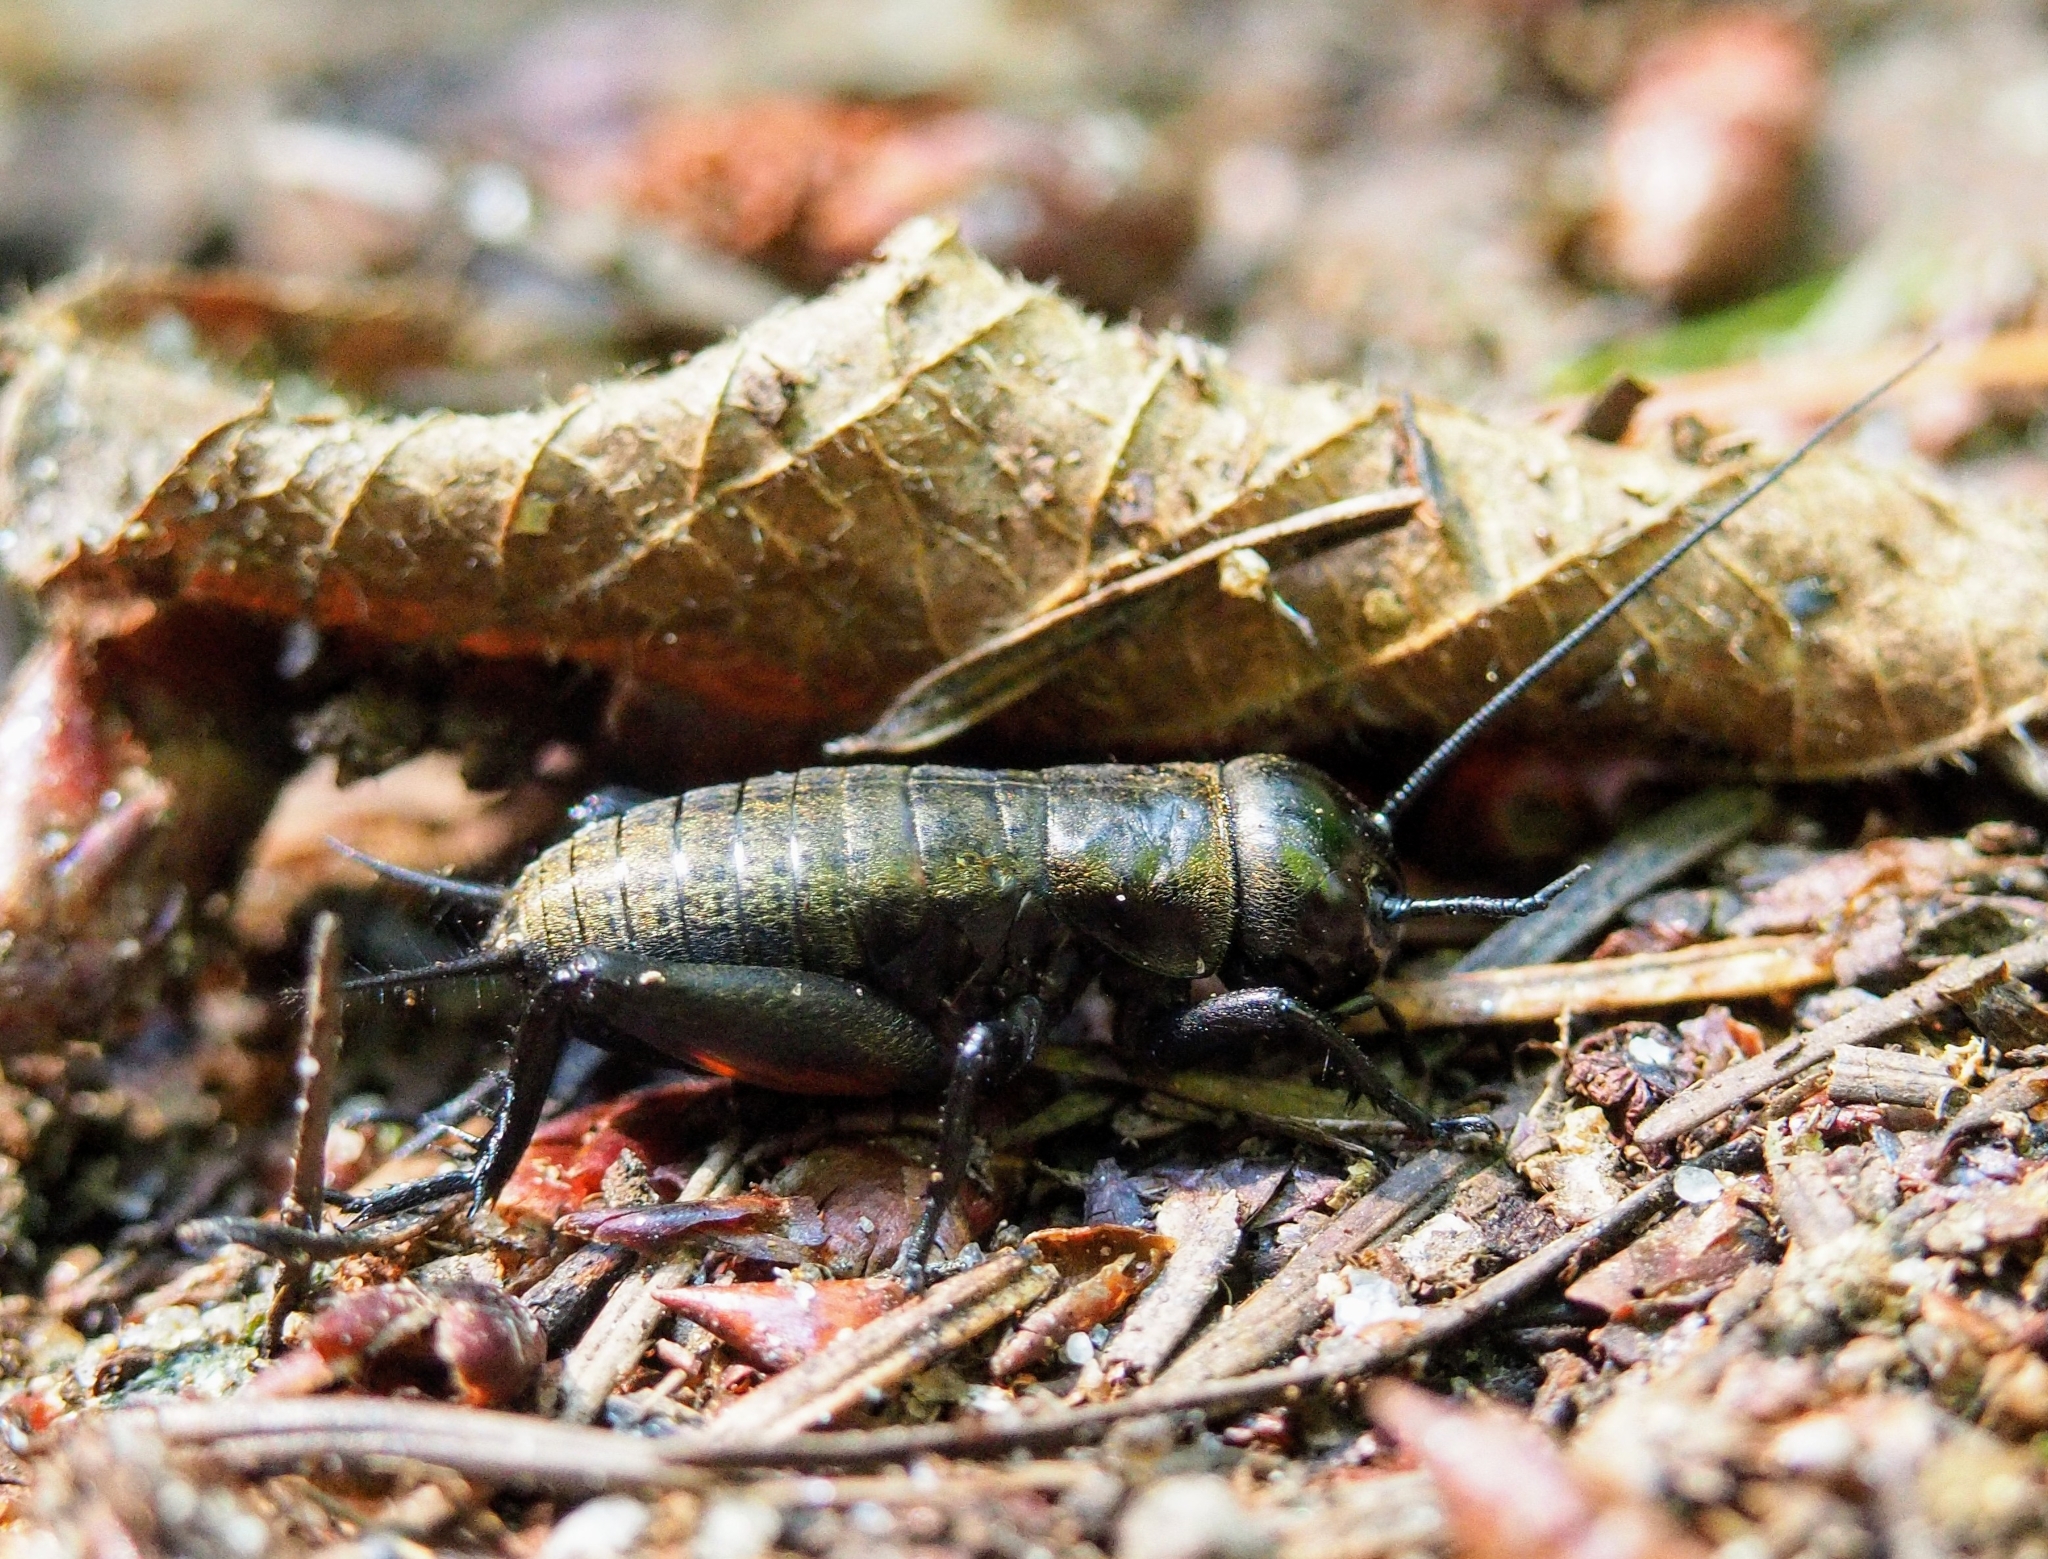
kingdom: Animalia
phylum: Arthropoda
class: Insecta
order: Orthoptera
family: Gryllidae
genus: Gryllus
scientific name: Gryllus campestris
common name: Field cricket
